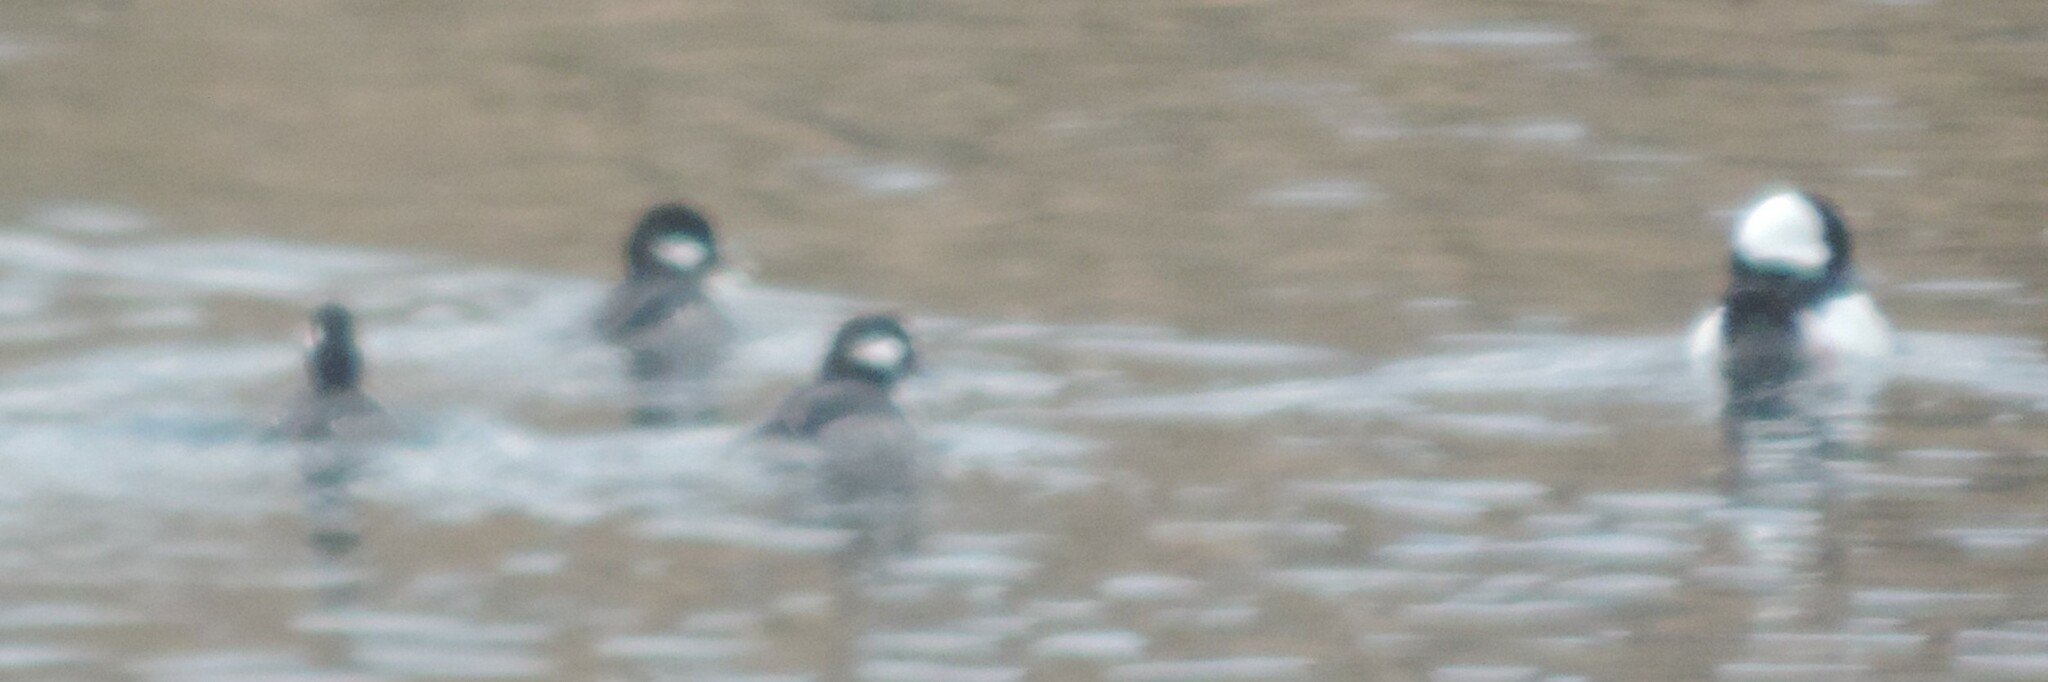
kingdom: Animalia
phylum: Chordata
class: Aves
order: Anseriformes
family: Anatidae
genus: Bucephala
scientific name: Bucephala albeola
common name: Bufflehead
